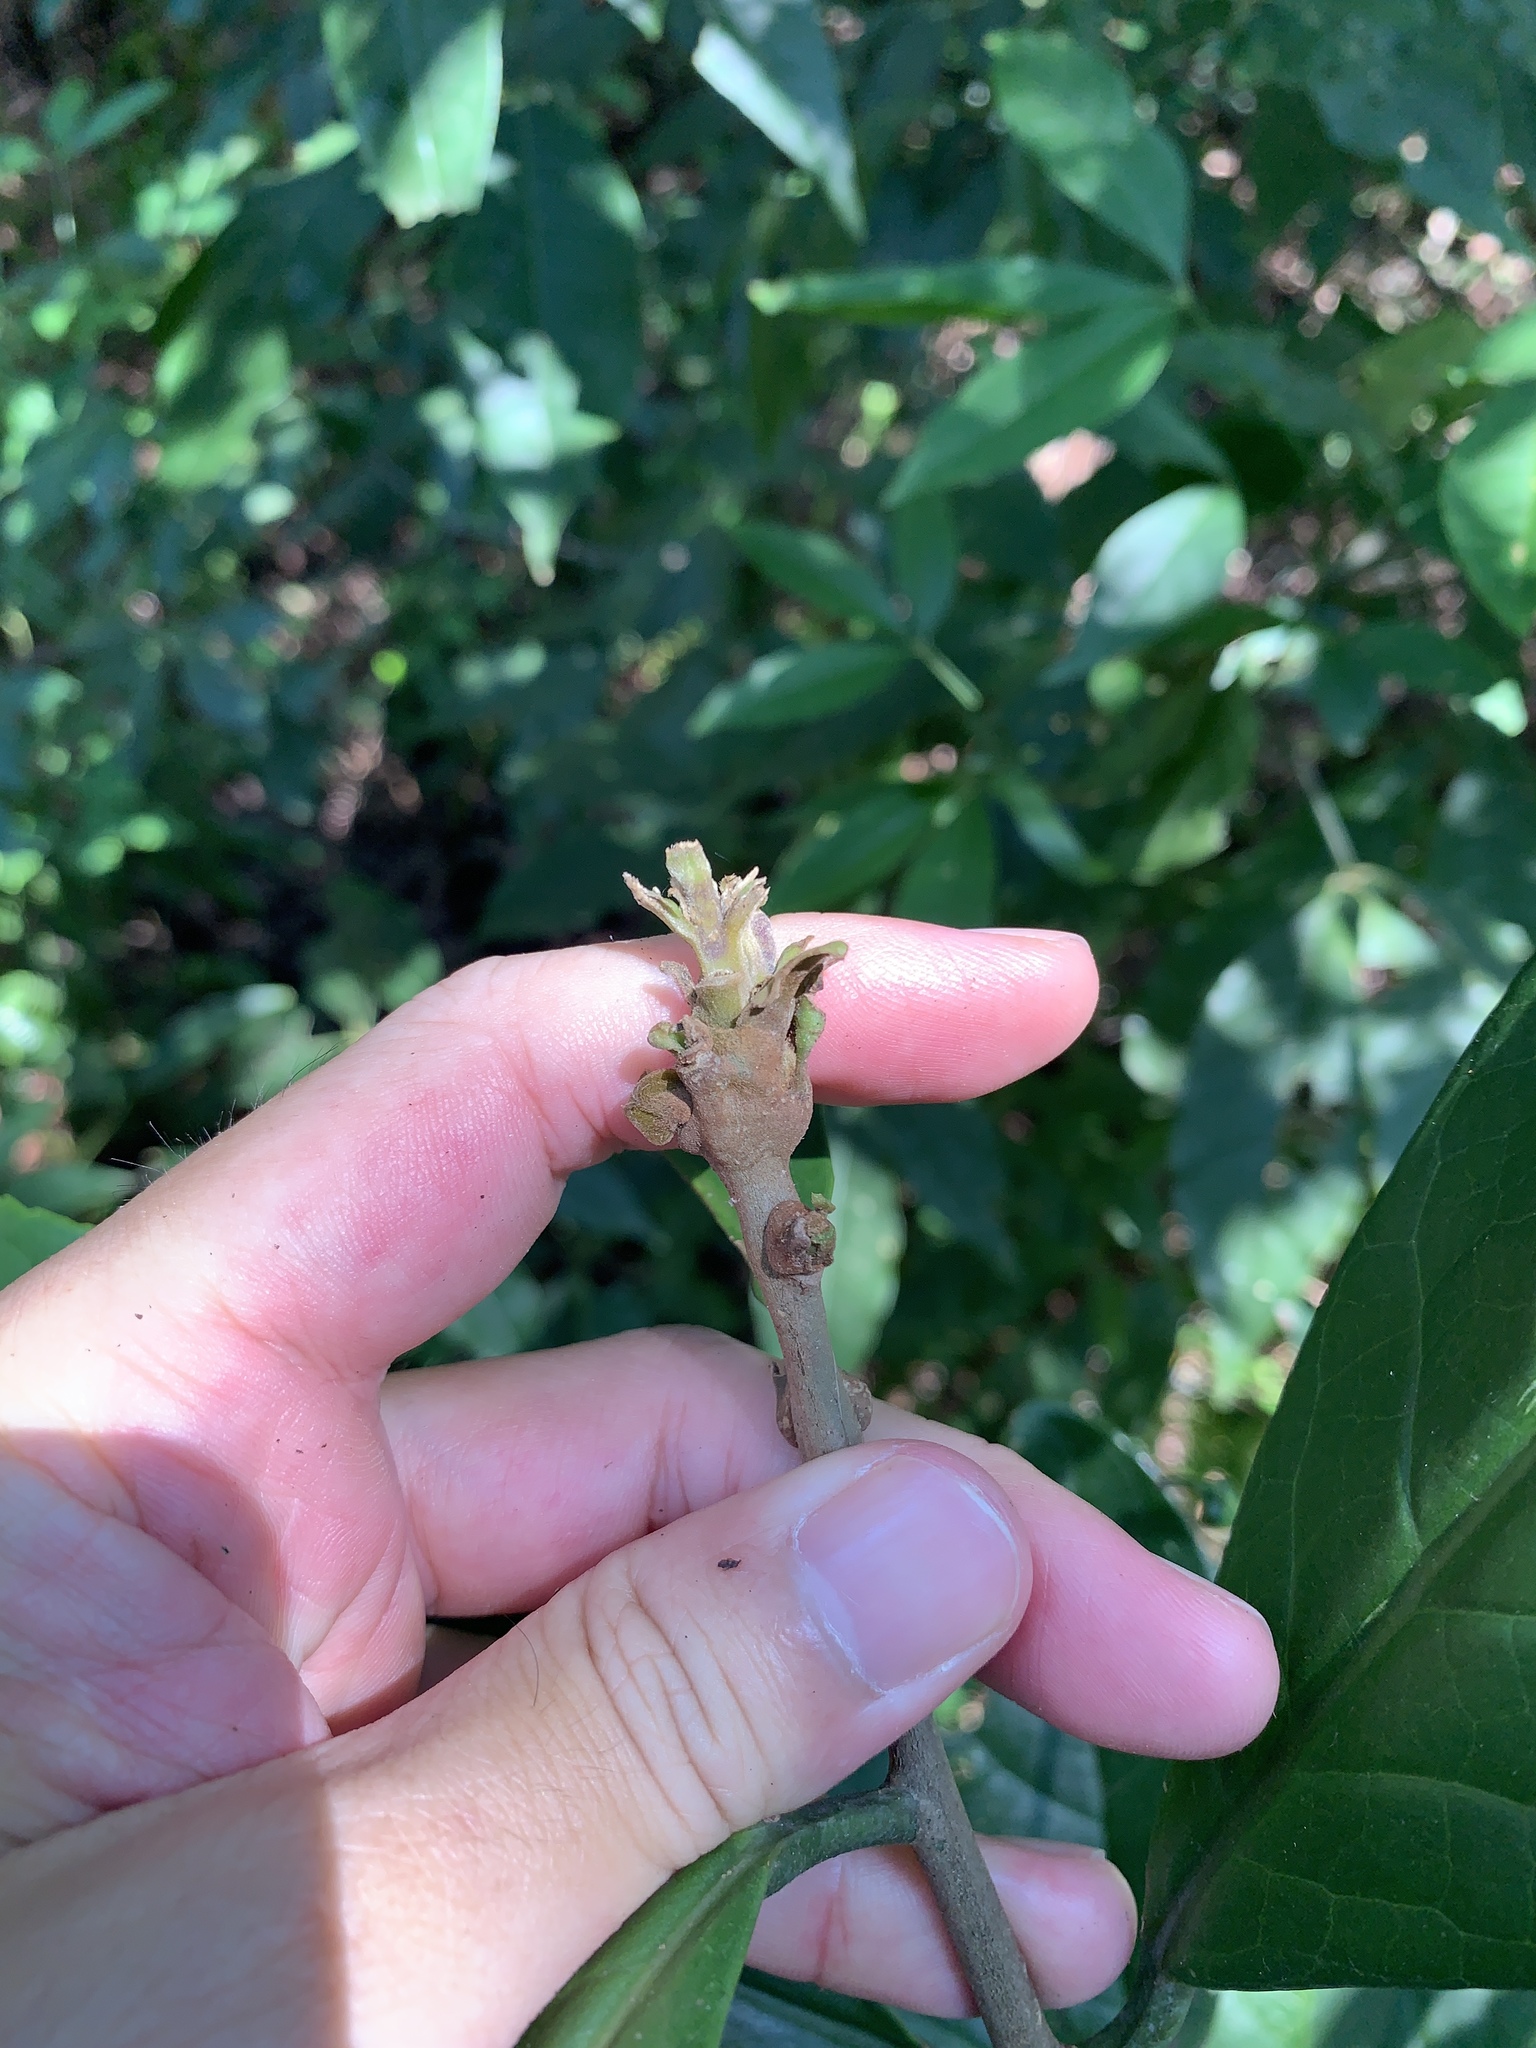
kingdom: Plantae
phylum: Tracheophyta
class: Magnoliopsida
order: Ericales
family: Symplocaceae
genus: Symplocos
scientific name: Symplocos acuminata
